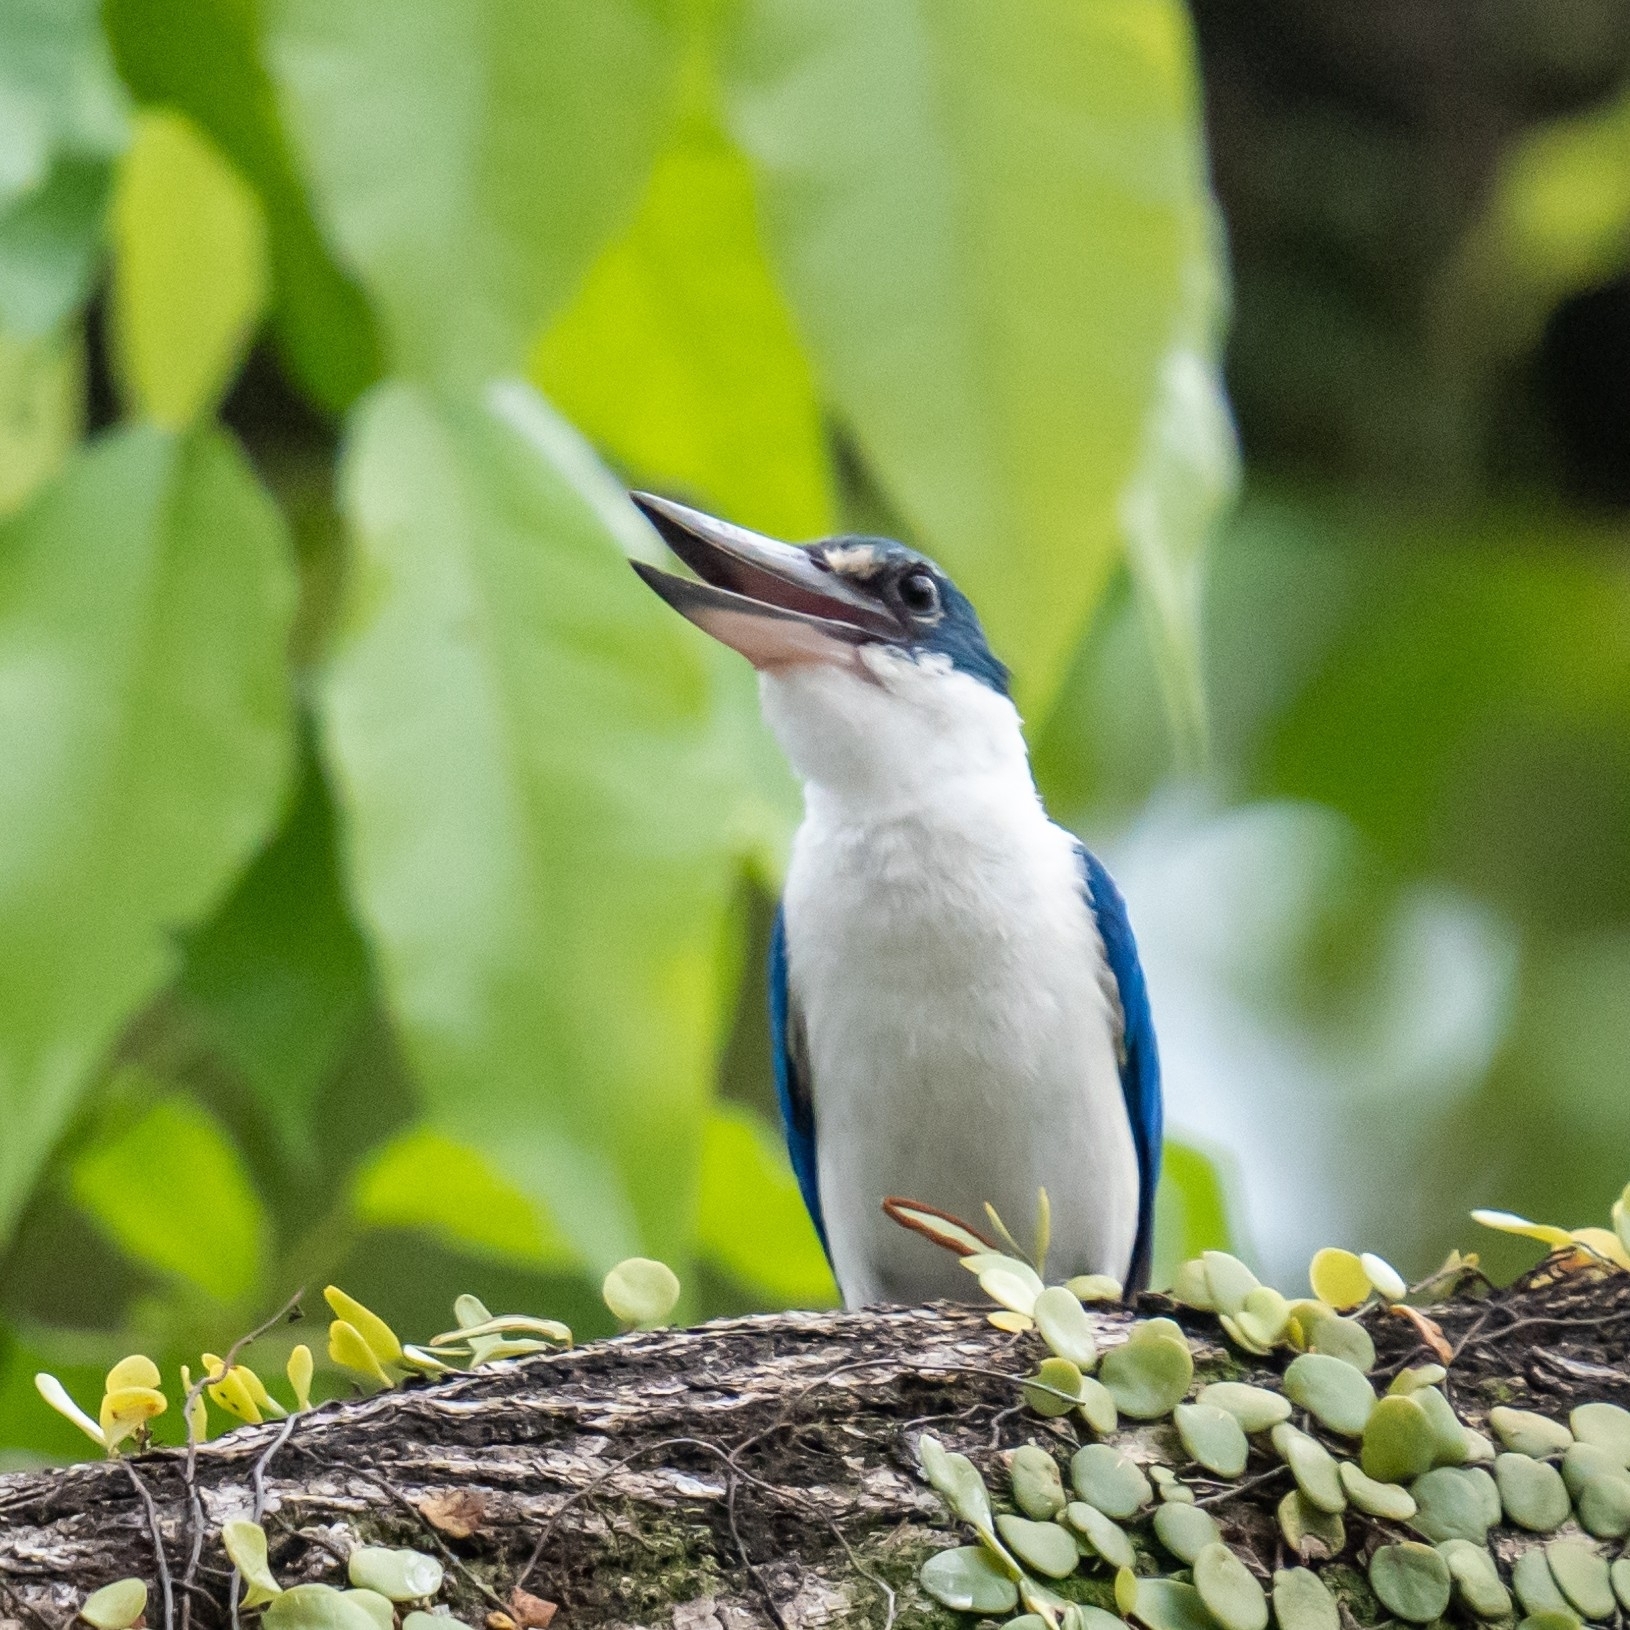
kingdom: Animalia
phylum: Chordata
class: Aves
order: Coraciiformes
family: Alcedinidae
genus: Todiramphus
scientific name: Todiramphus chloris
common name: Collared kingfisher
